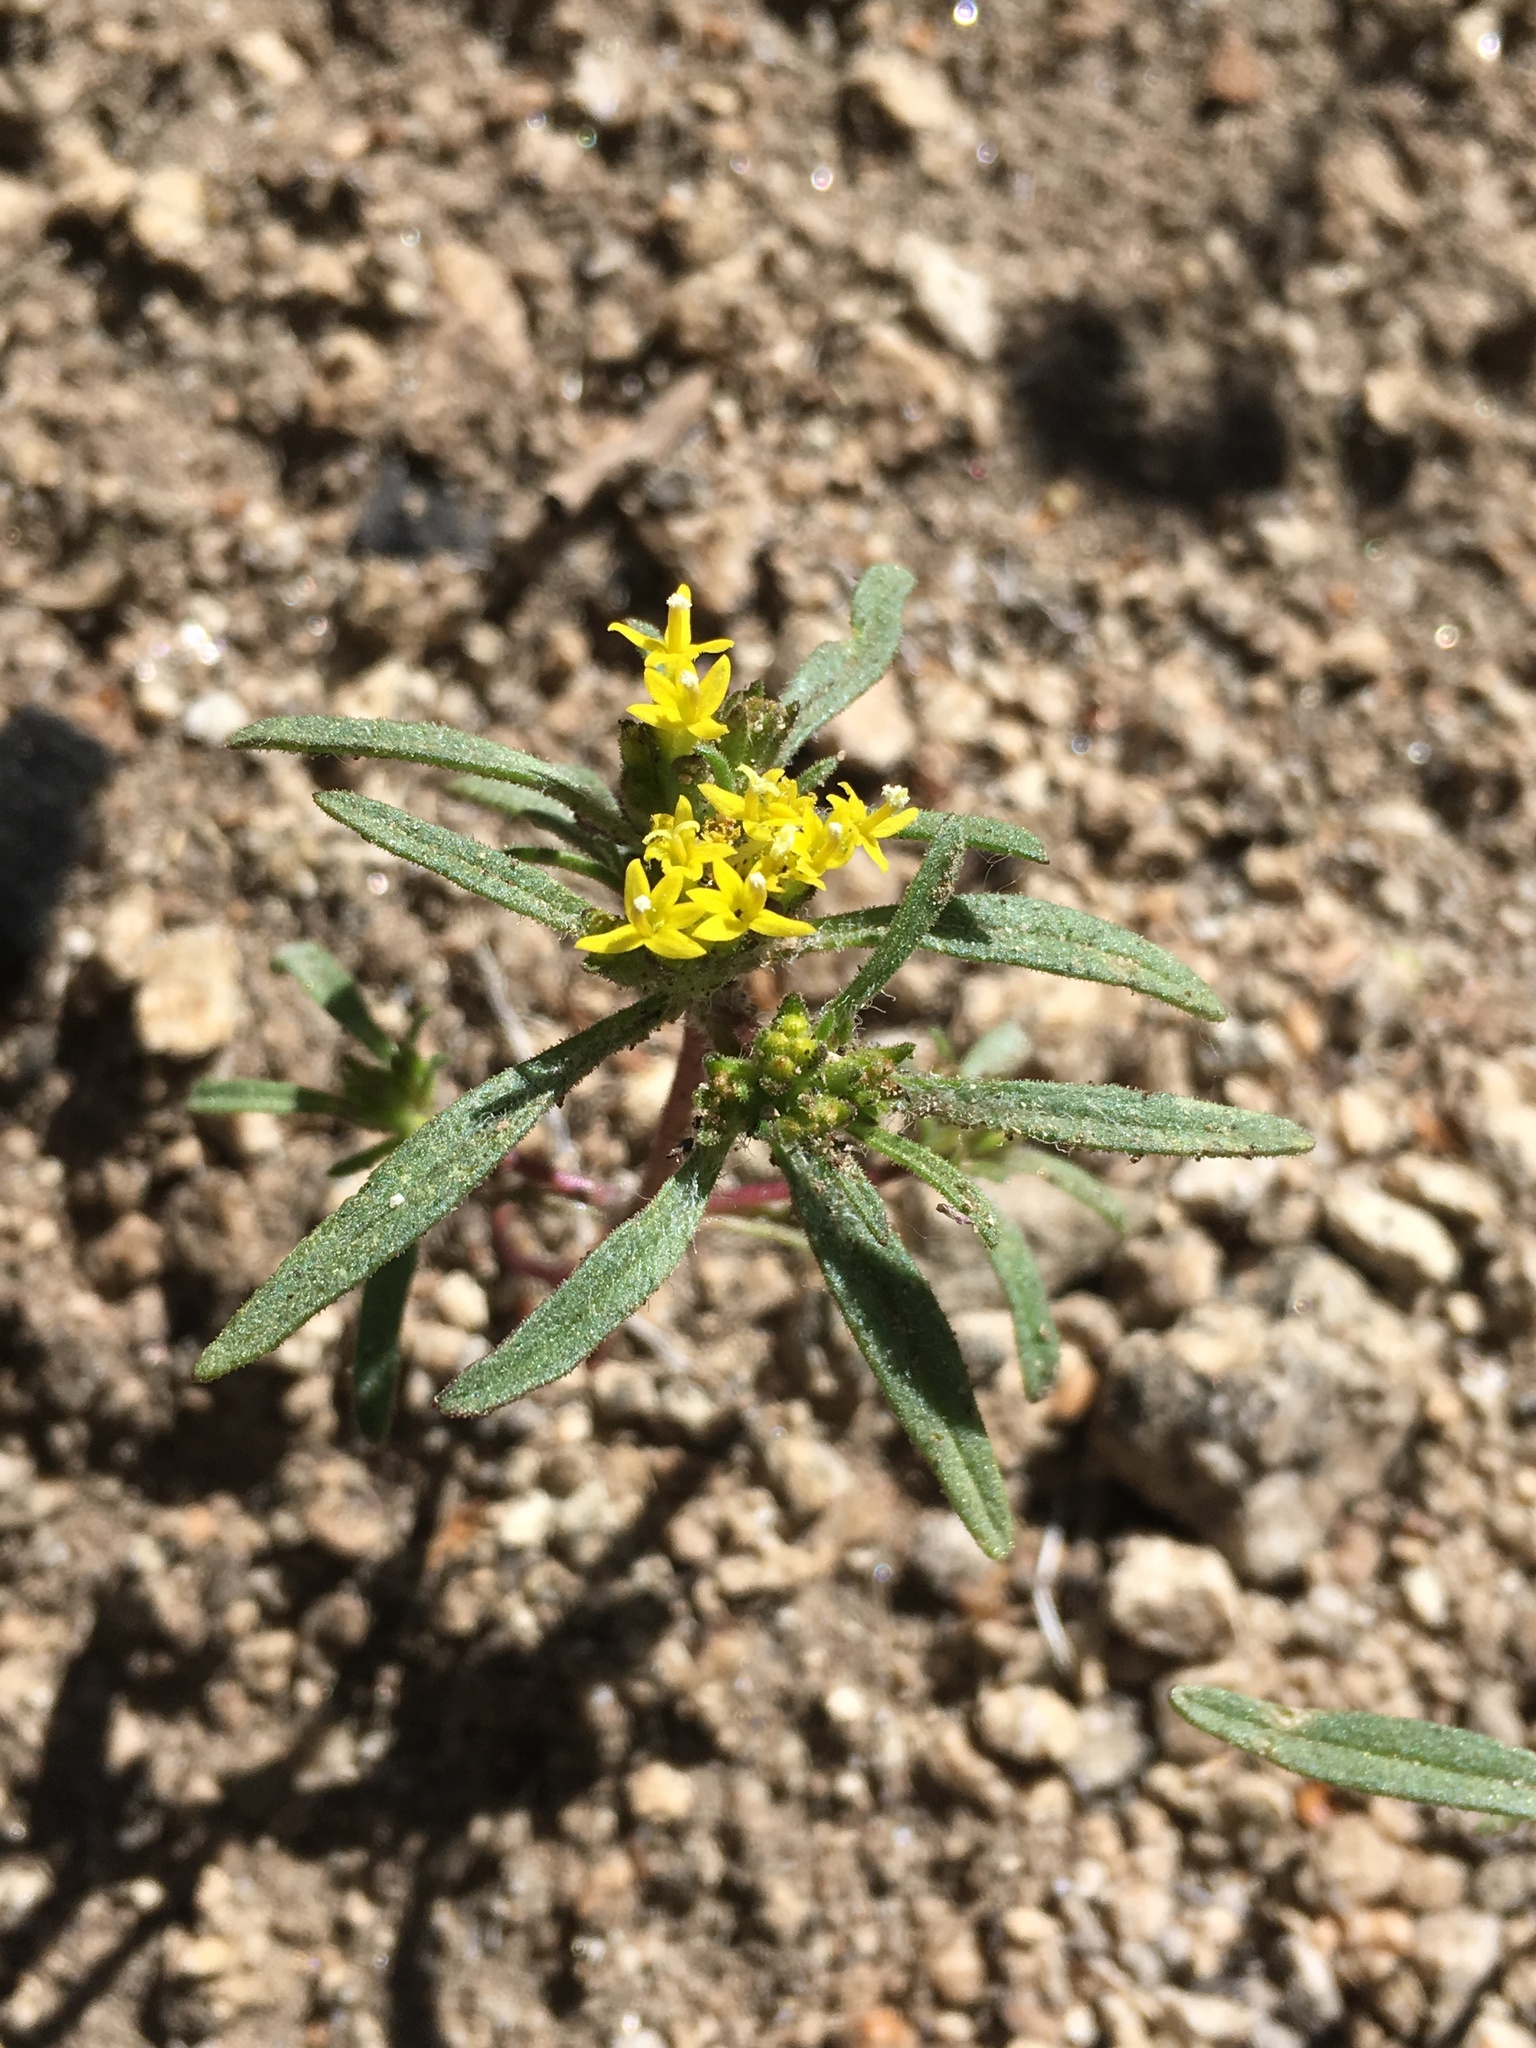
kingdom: Plantae
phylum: Tracheophyta
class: Magnoliopsida
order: Asterales
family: Asteraceae
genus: Orochaenactis
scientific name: Orochaenactis thysanocarpha
